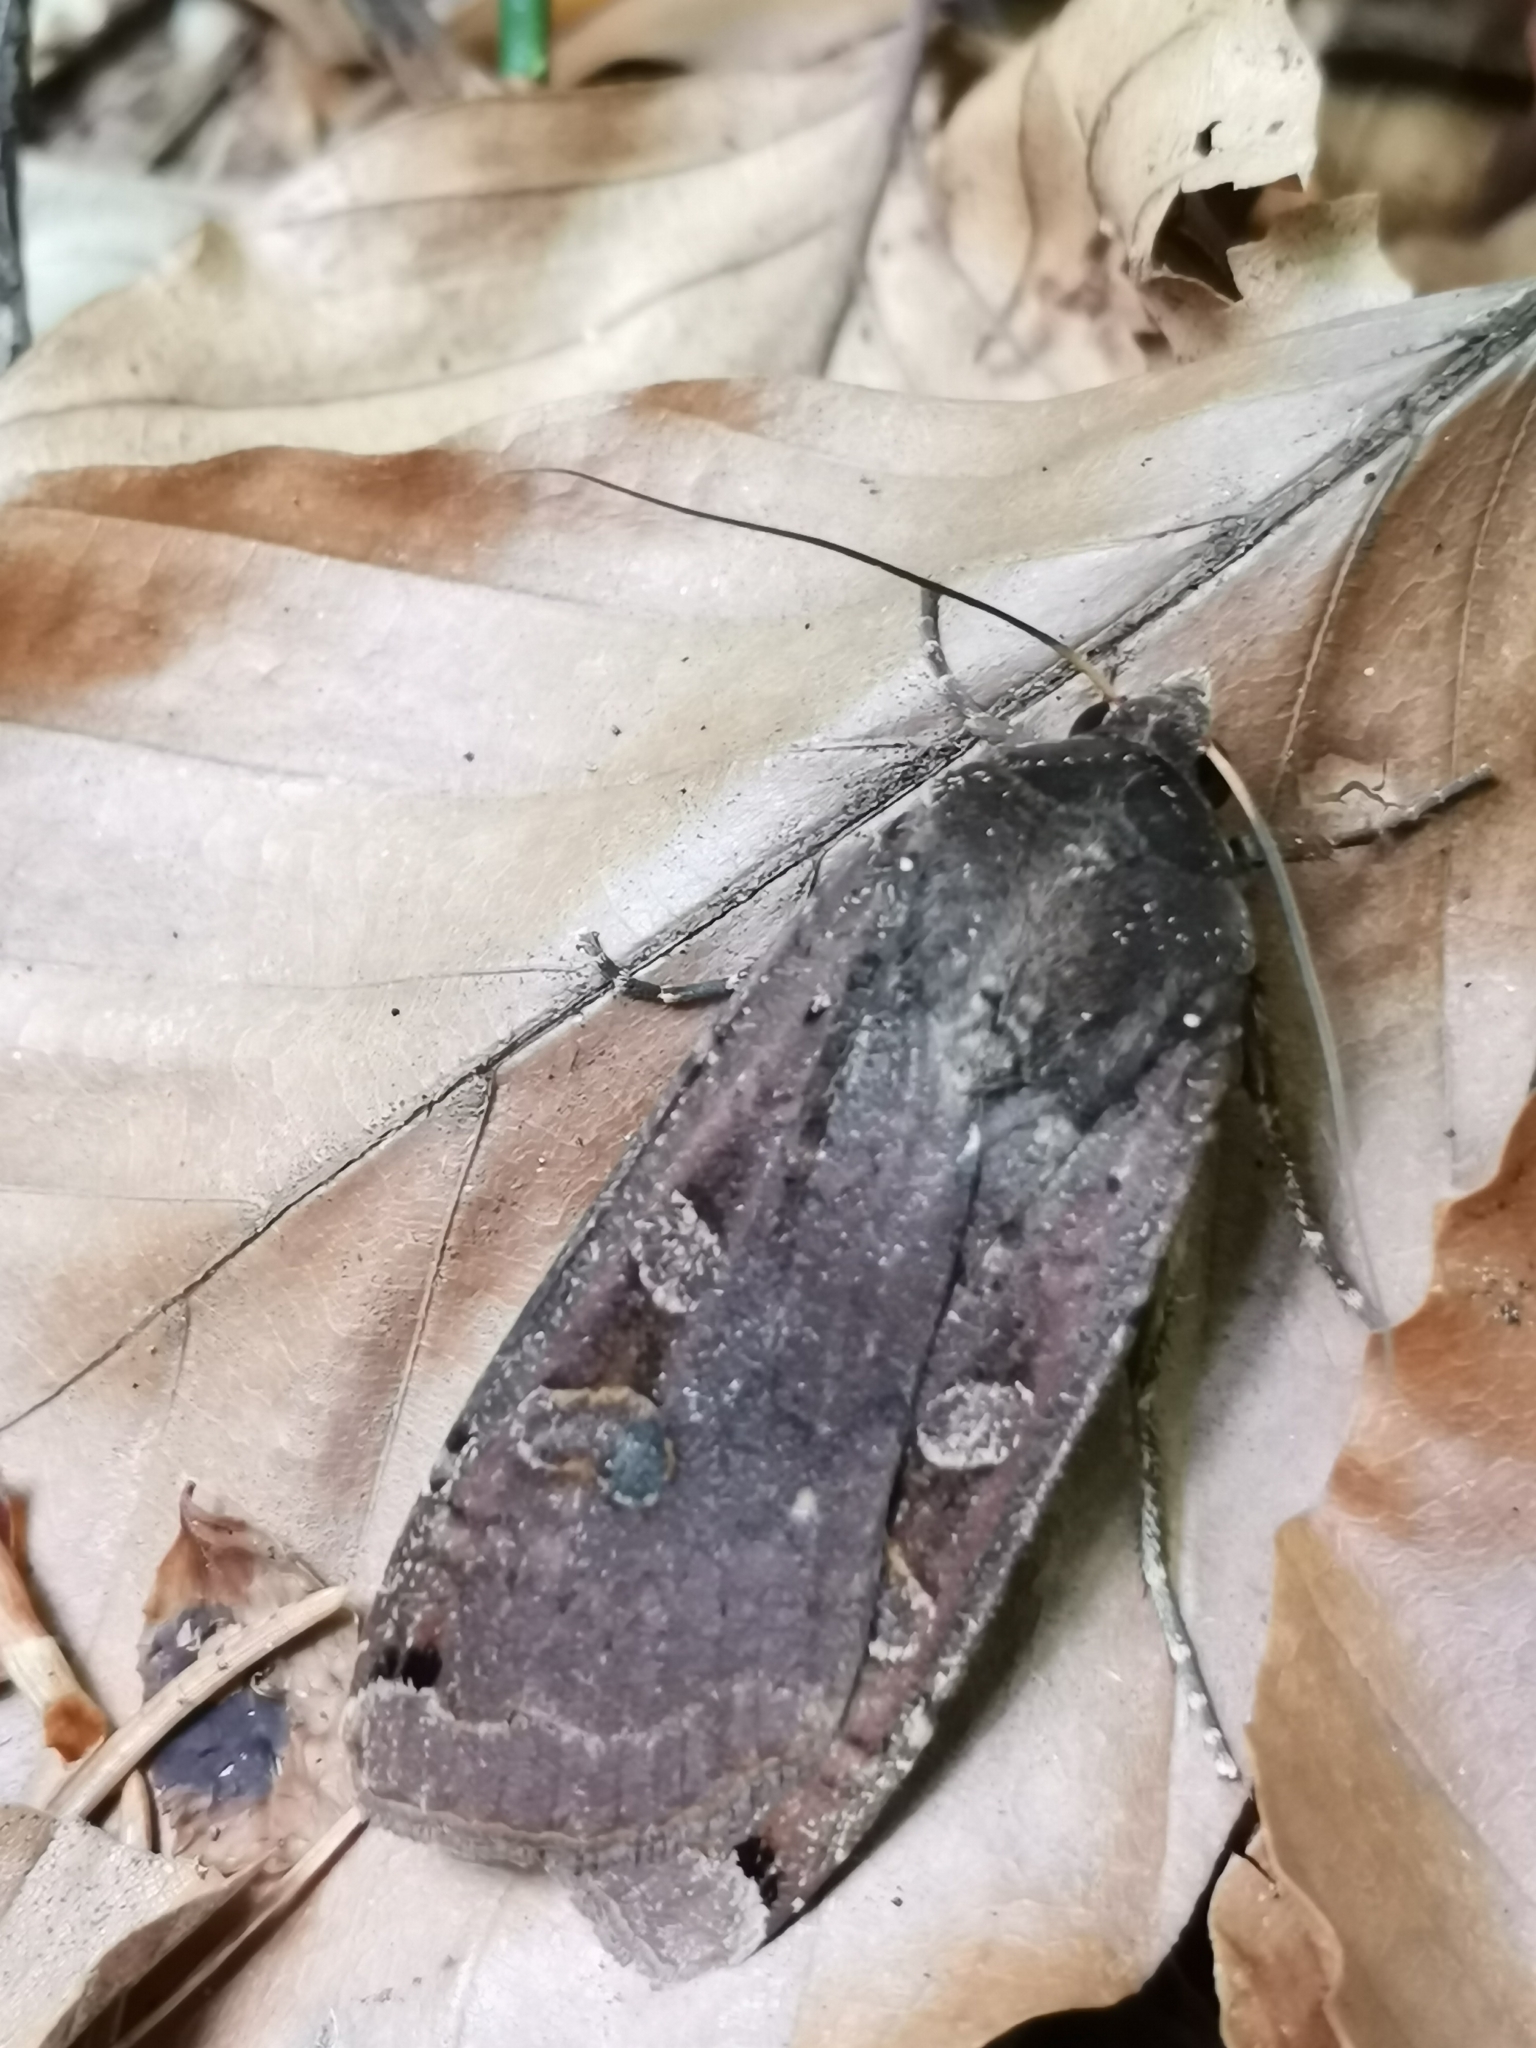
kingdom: Animalia
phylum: Arthropoda
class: Insecta
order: Lepidoptera
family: Noctuidae
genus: Noctua
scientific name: Noctua pronuba
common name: Large yellow underwing
